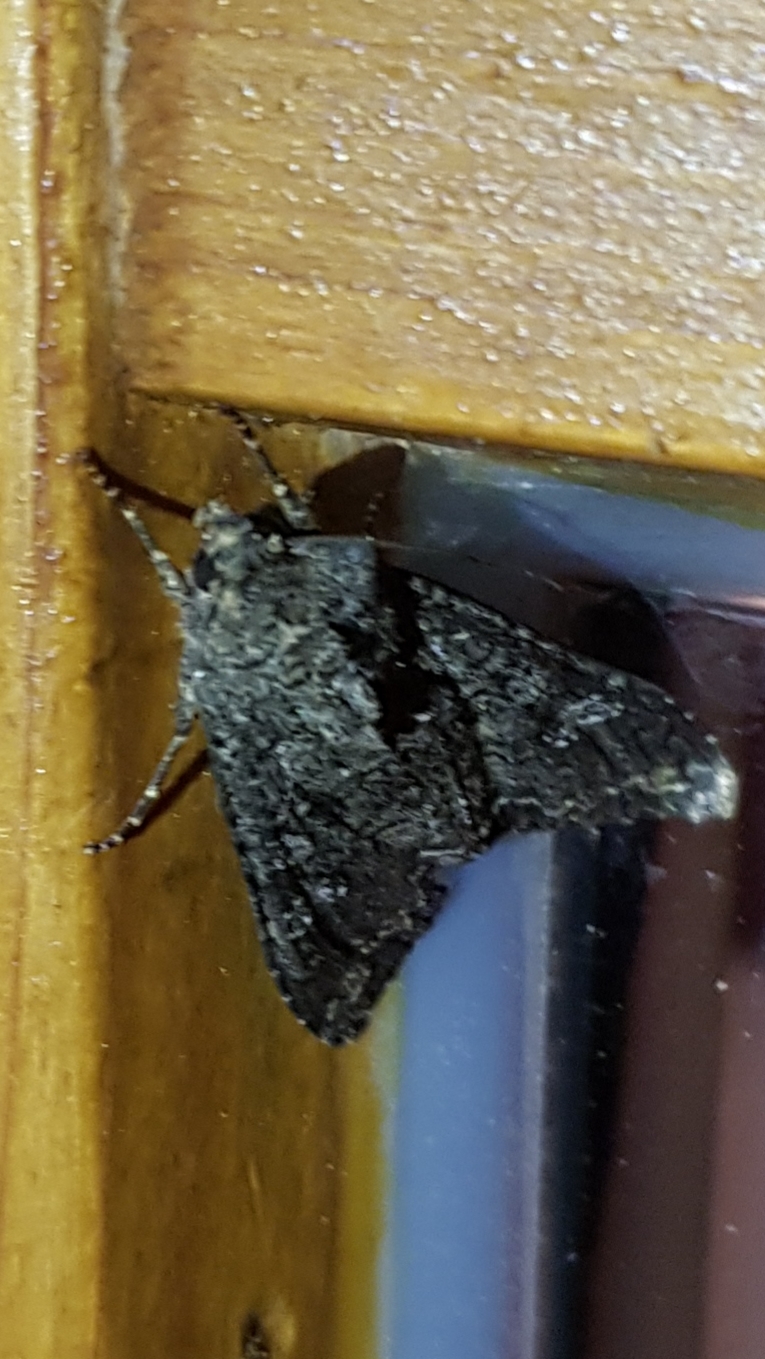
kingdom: Animalia
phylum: Arthropoda
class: Insecta
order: Lepidoptera
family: Noctuidae
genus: Mamestra
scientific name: Mamestra brassicae
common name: Cabbage moth
